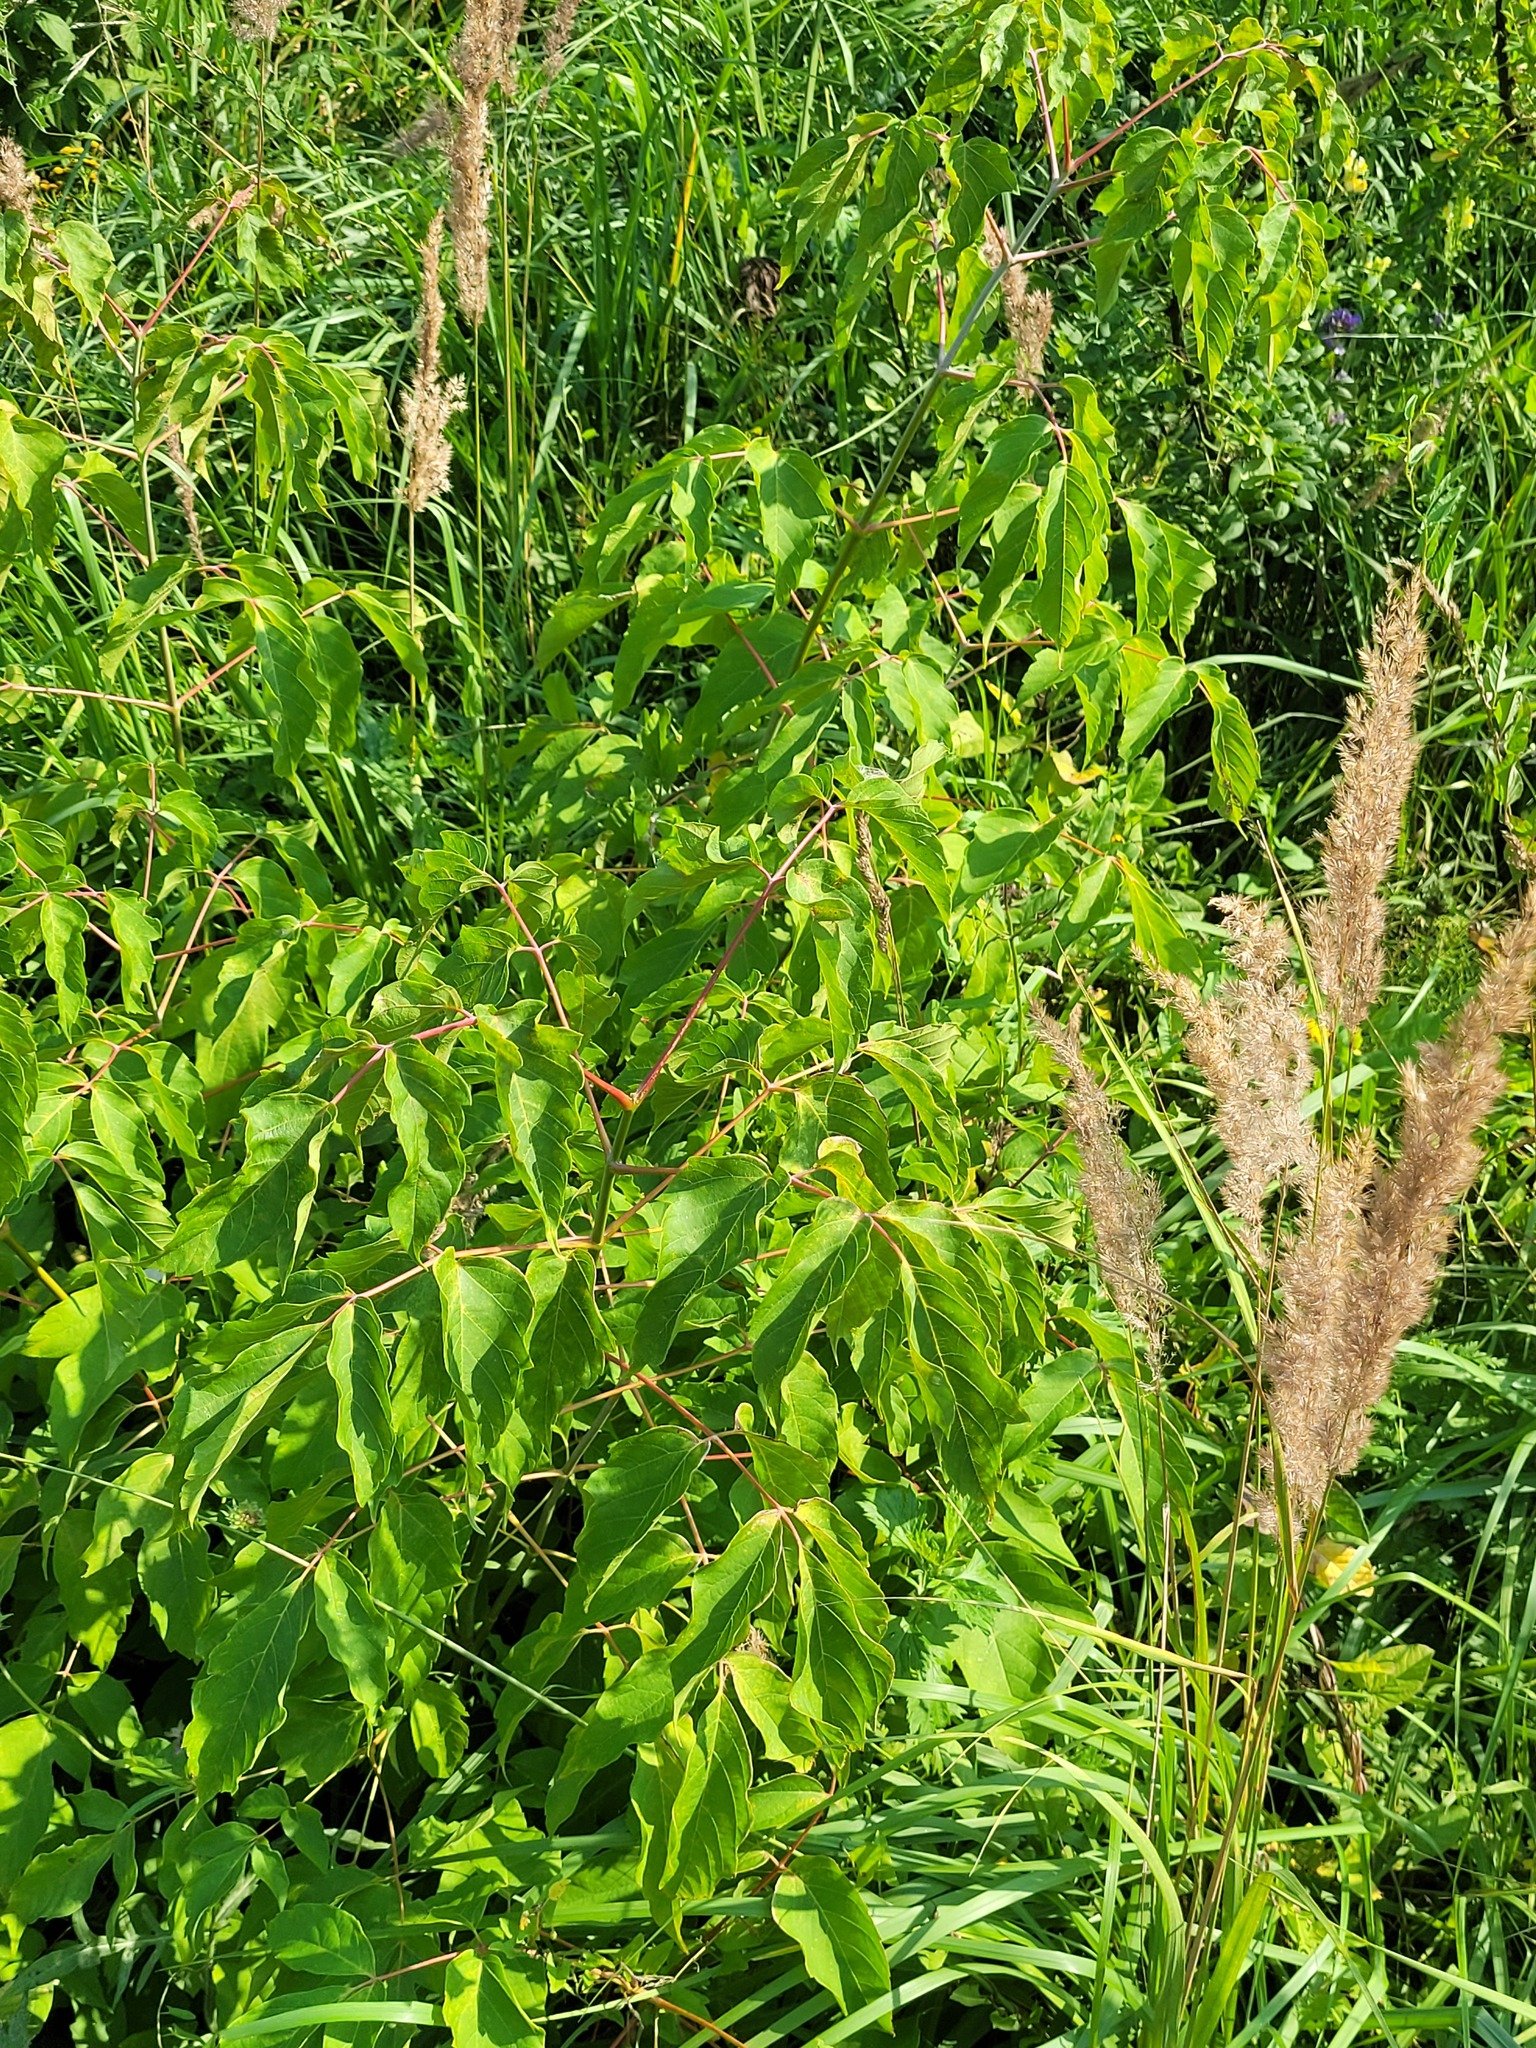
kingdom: Plantae
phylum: Tracheophyta
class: Magnoliopsida
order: Sapindales
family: Sapindaceae
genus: Acer
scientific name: Acer negundo
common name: Ashleaf maple
